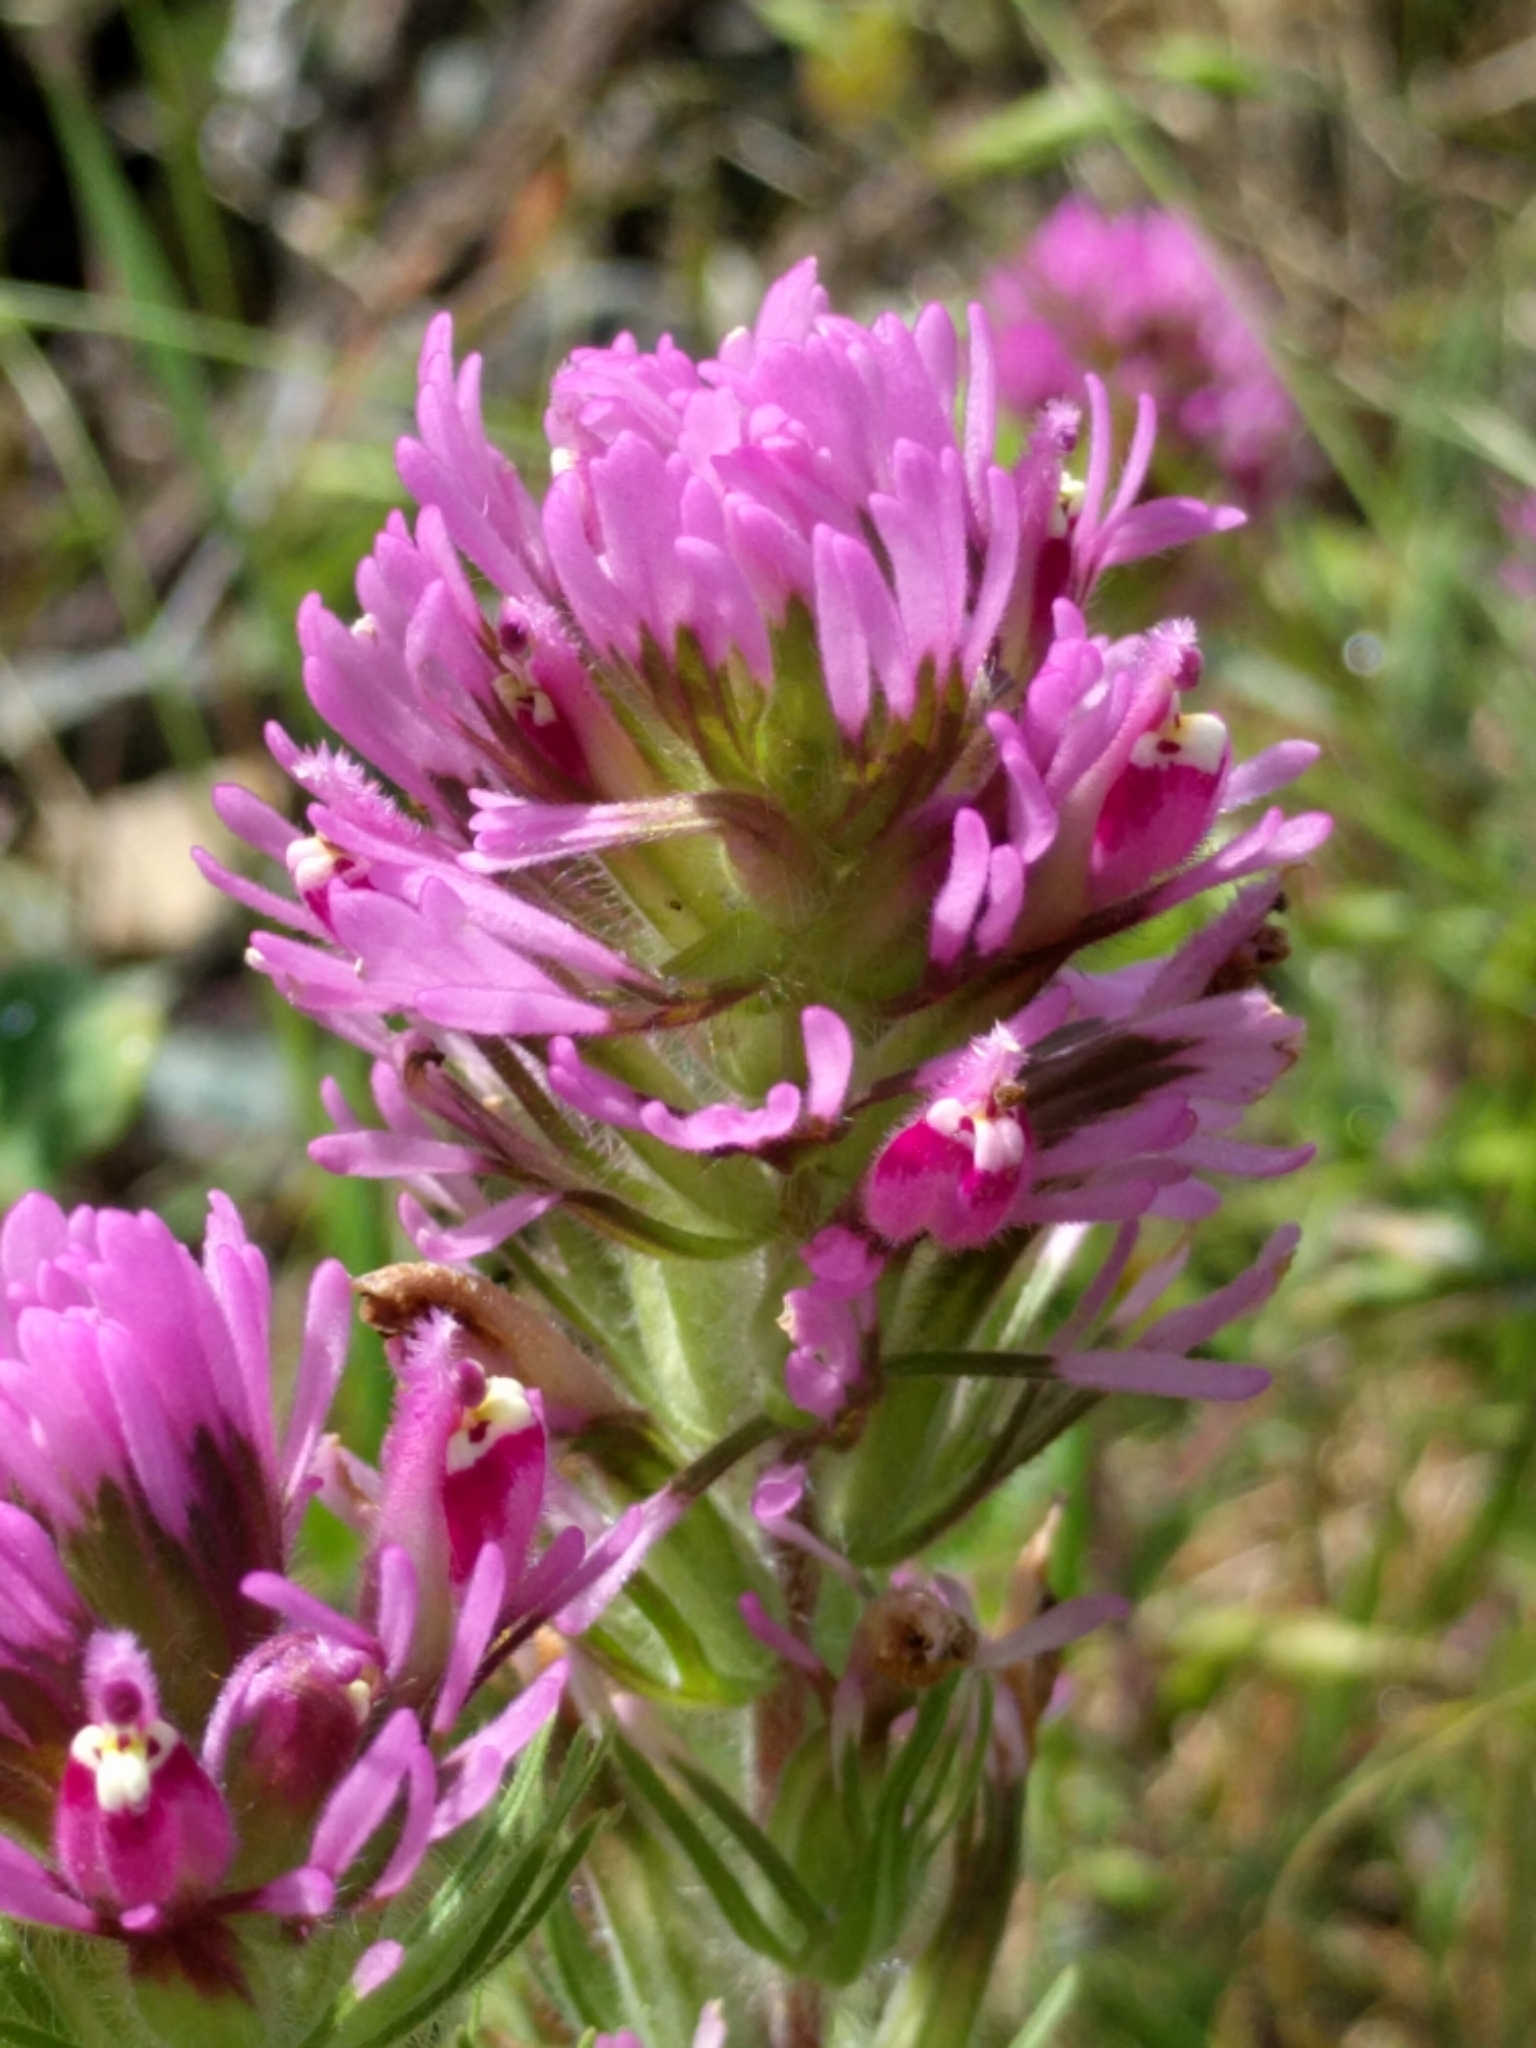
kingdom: Plantae
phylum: Tracheophyta
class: Magnoliopsida
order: Lamiales
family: Orobanchaceae
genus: Castilleja
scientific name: Castilleja exserta
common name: Purple owl-clover
